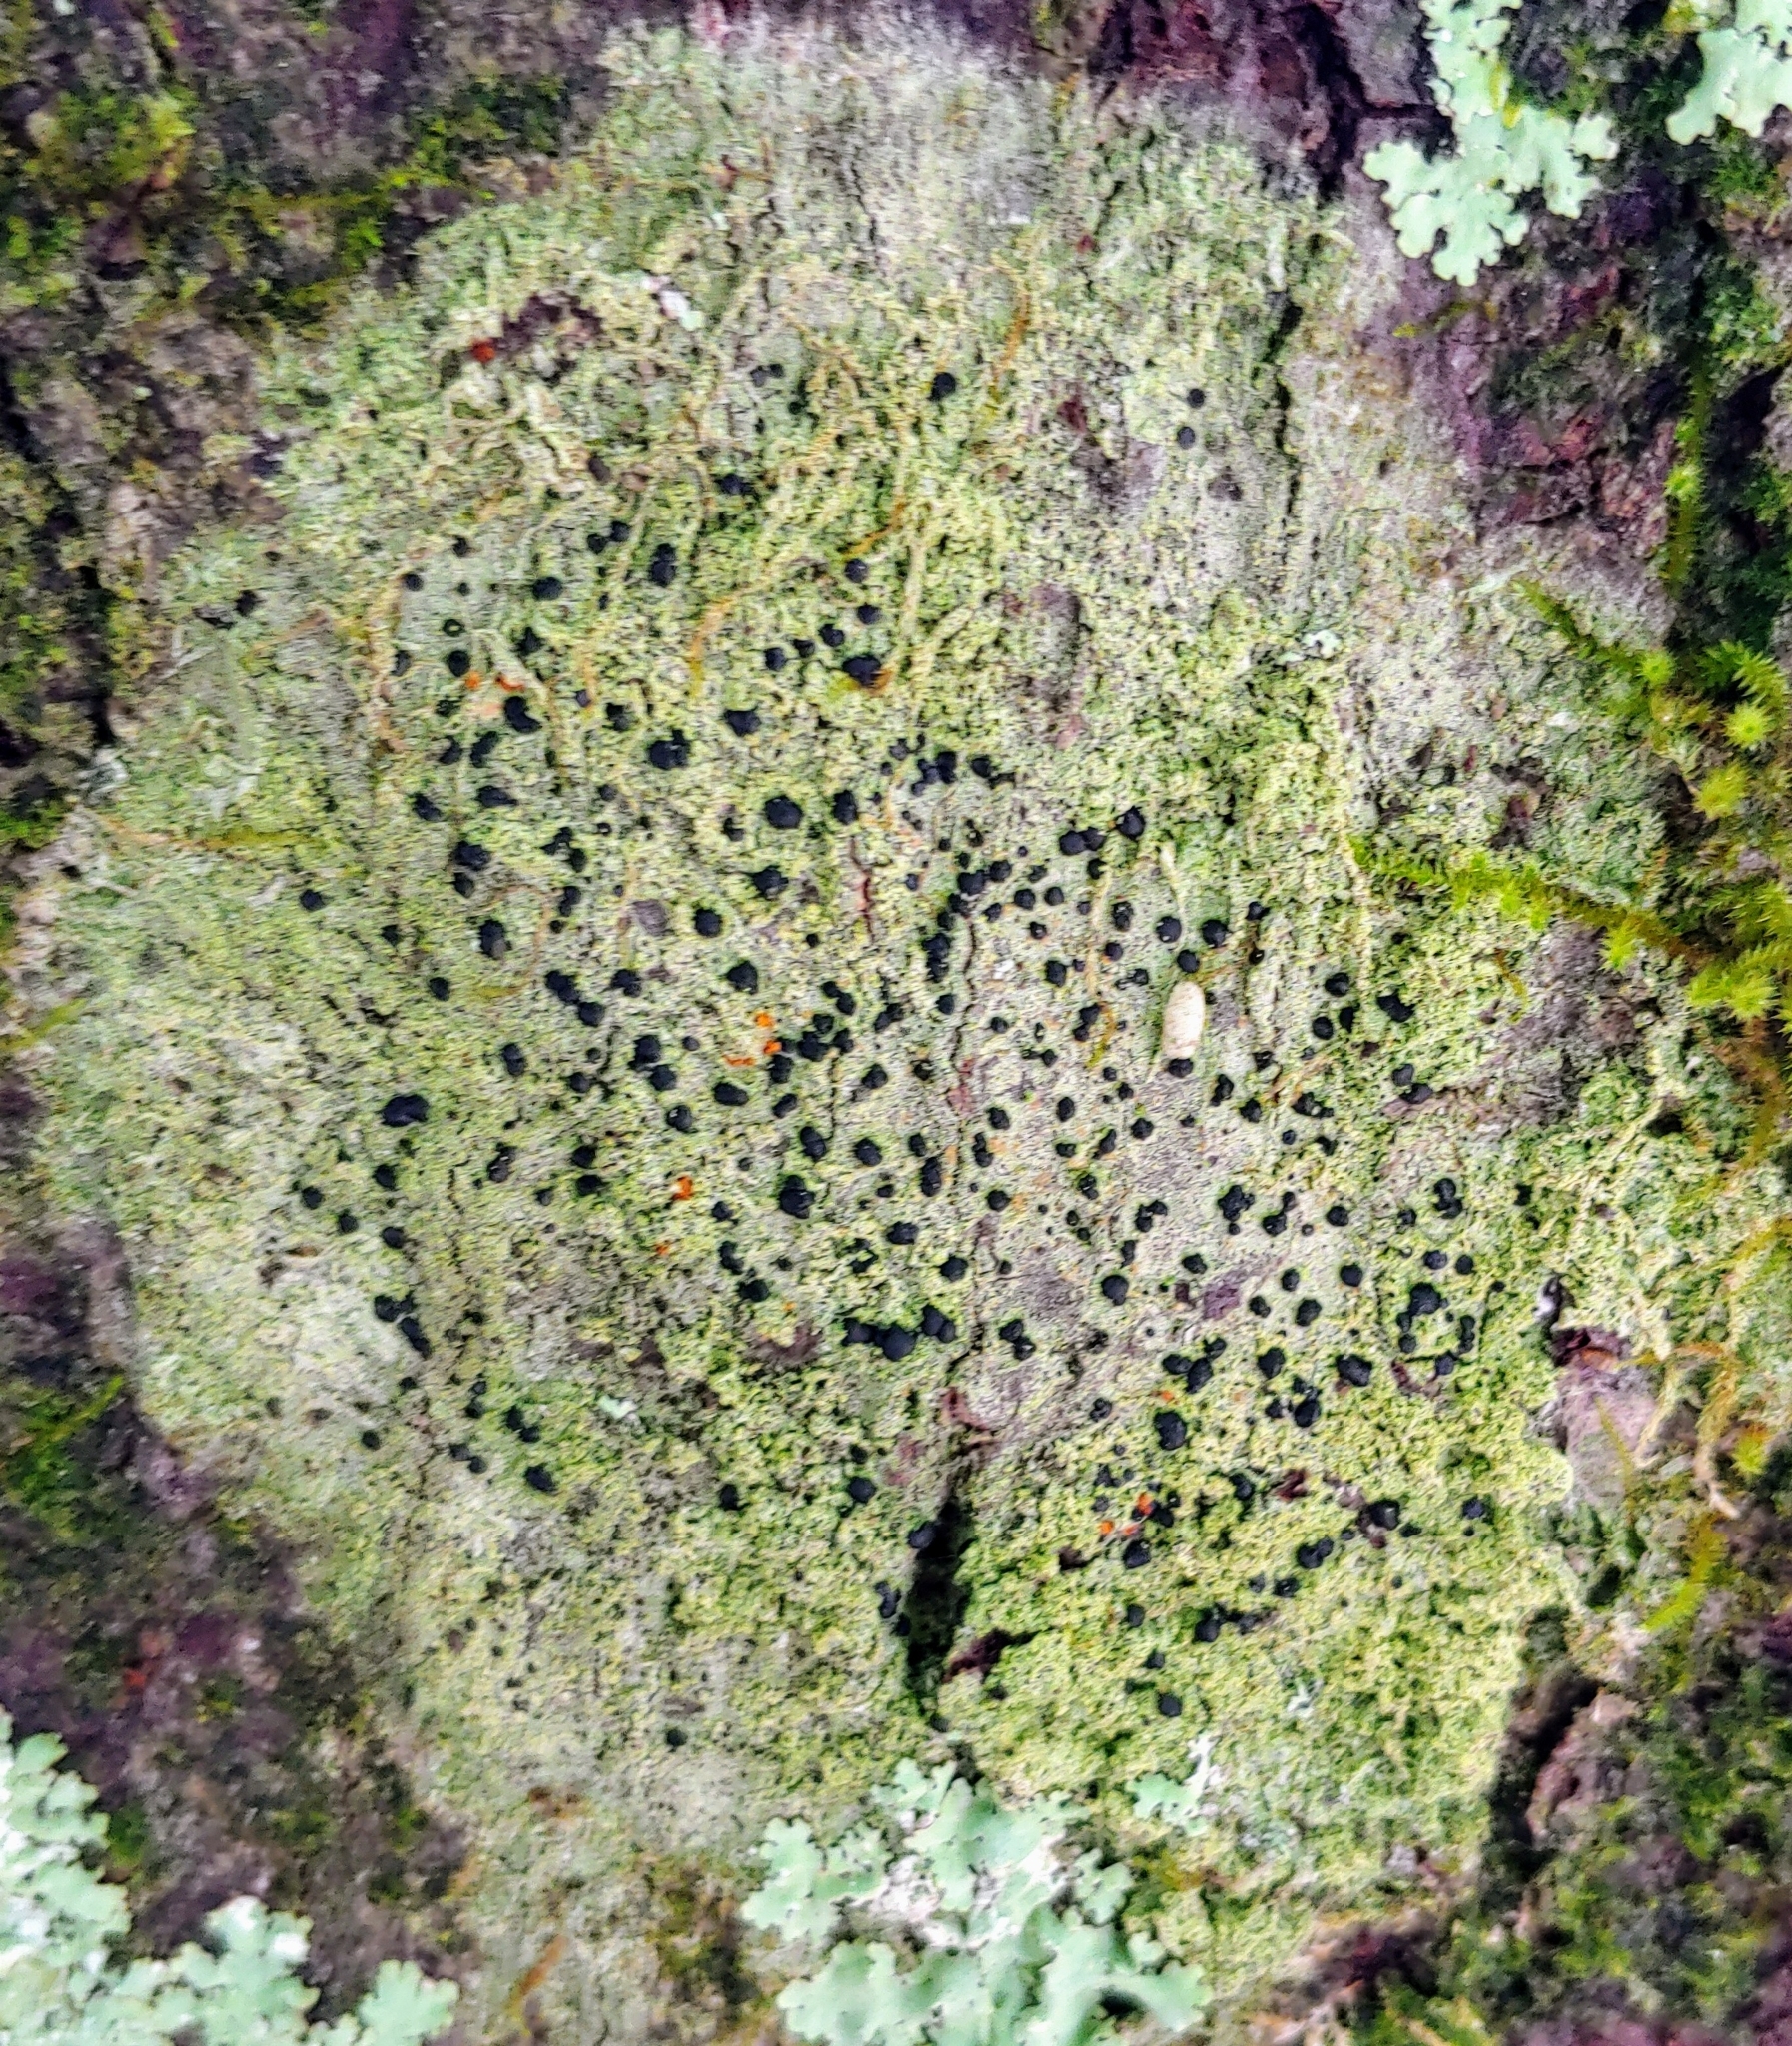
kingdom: Fungi
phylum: Ascomycota
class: Lecanoromycetes
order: Lecanorales
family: Ramalinaceae
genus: Bacidia
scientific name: Bacidia schweinitzii
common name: Surprise lichen
